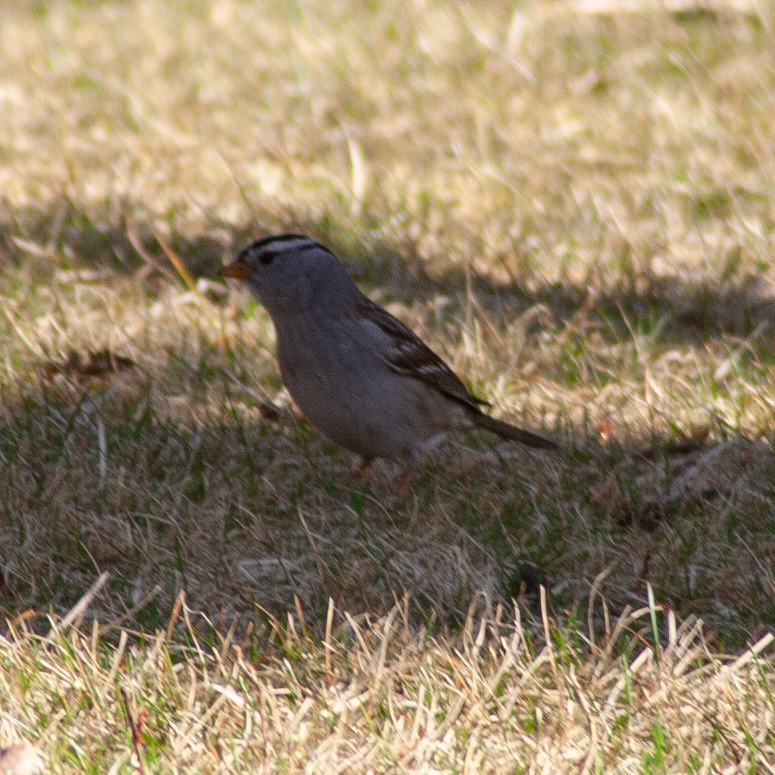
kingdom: Animalia
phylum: Chordata
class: Aves
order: Passeriformes
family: Passerellidae
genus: Zonotrichia
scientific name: Zonotrichia leucophrys
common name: White-crowned sparrow
